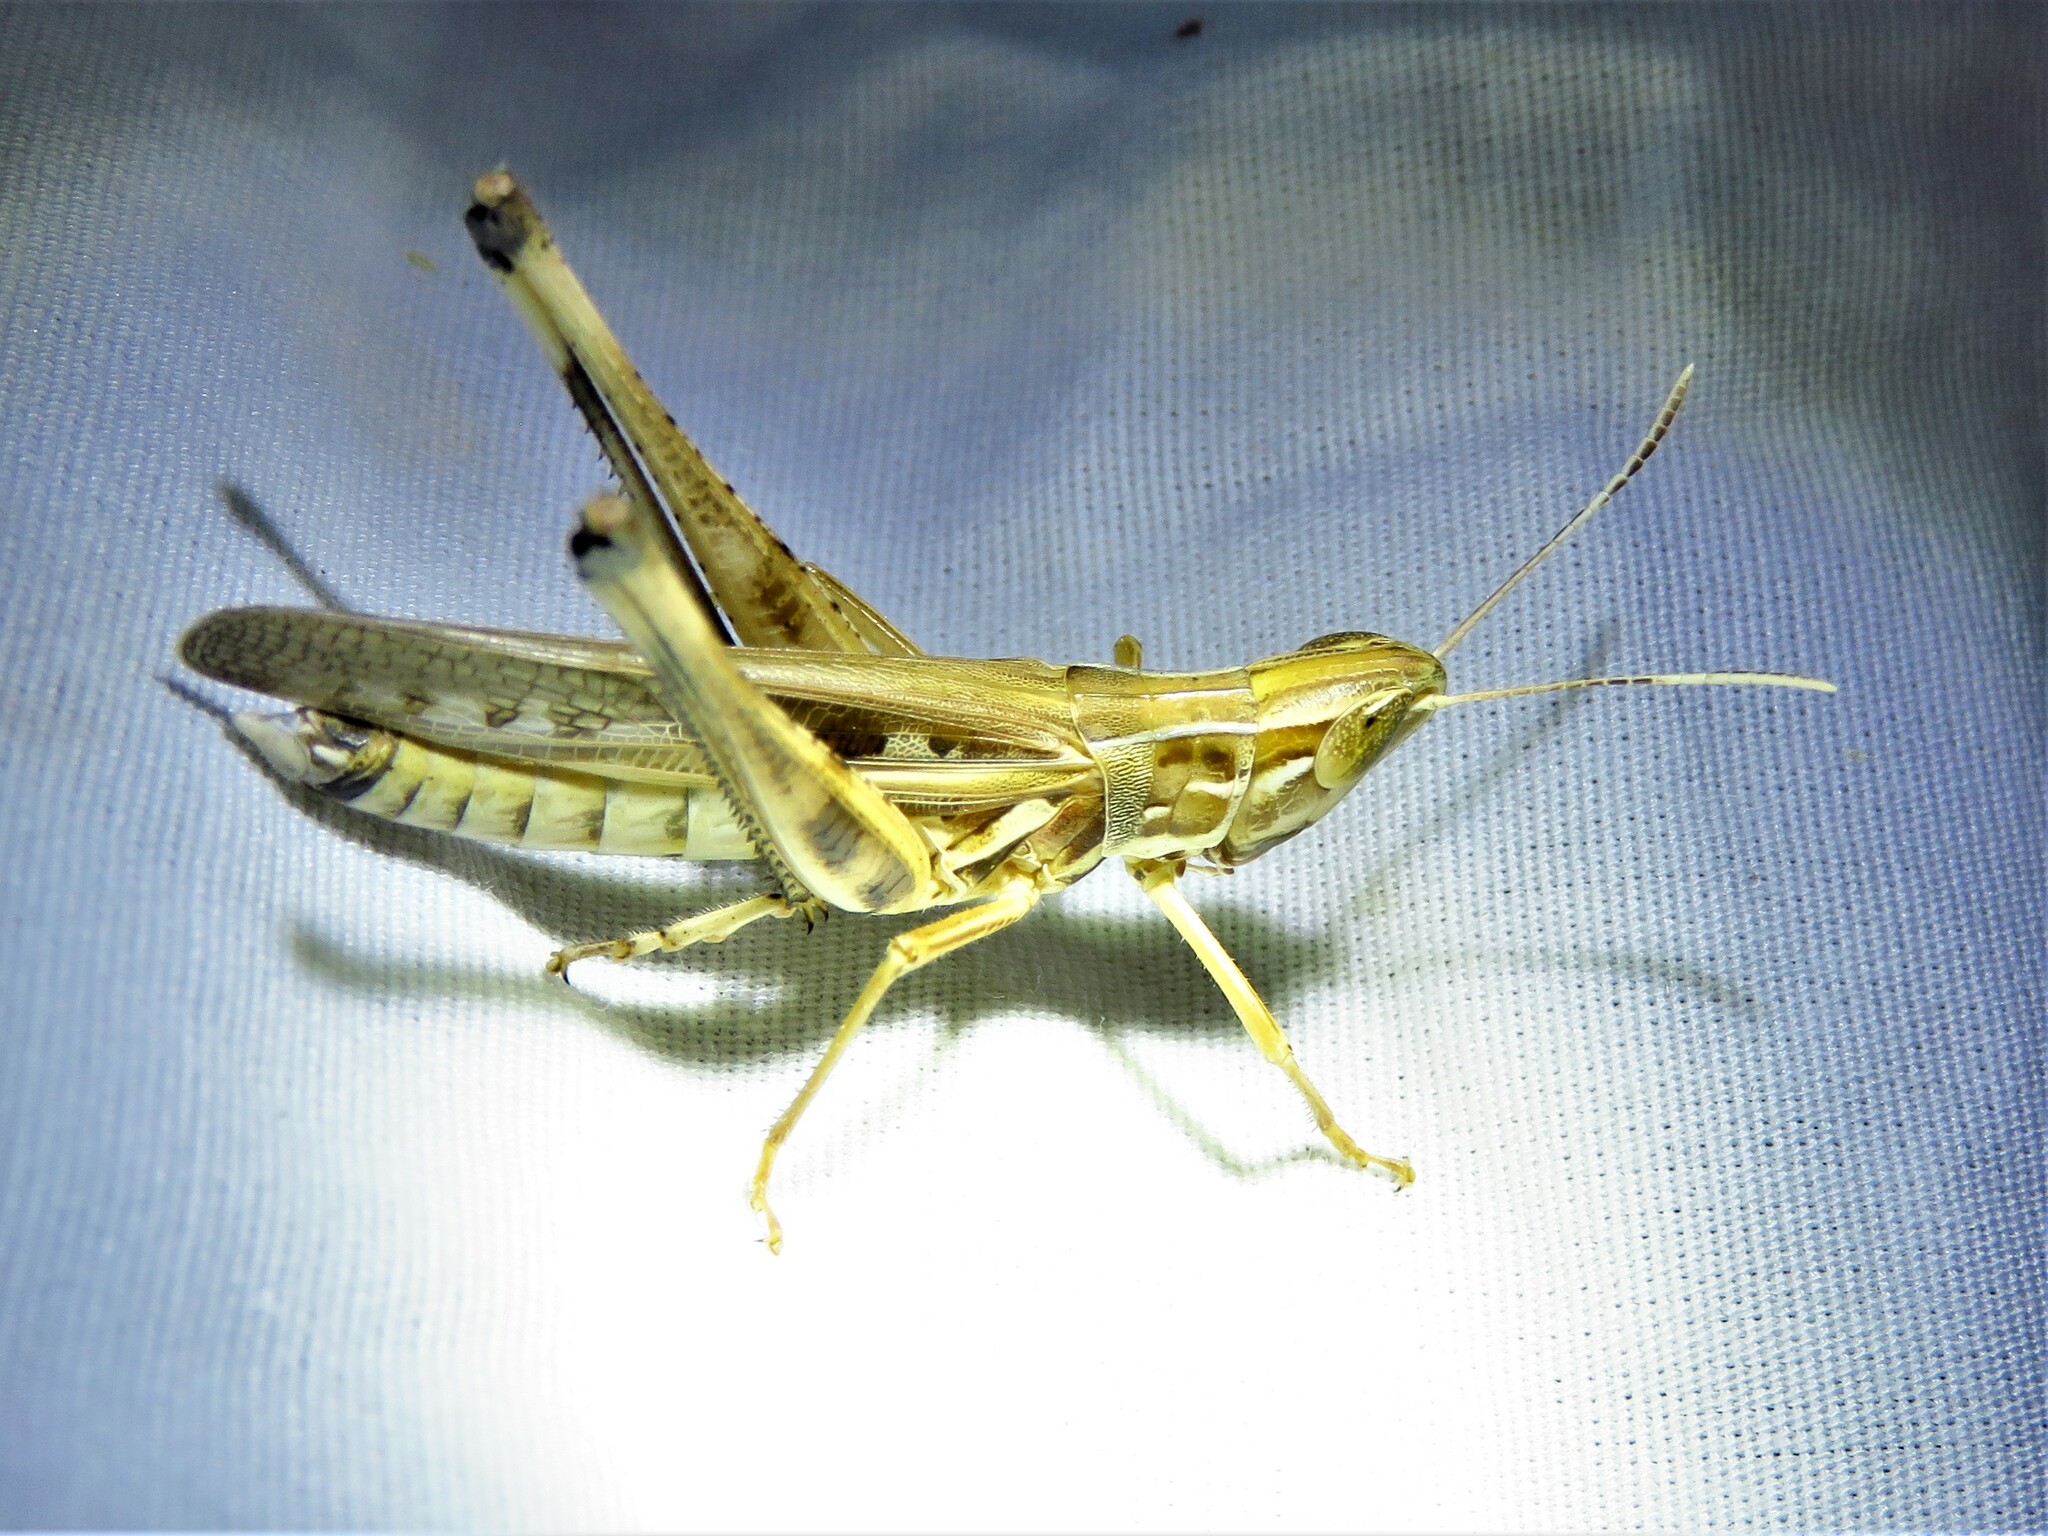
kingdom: Animalia
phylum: Arthropoda
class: Insecta
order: Orthoptera
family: Acrididae
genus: Syrbula
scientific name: Syrbula admirabilis
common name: Handsome grasshopper
